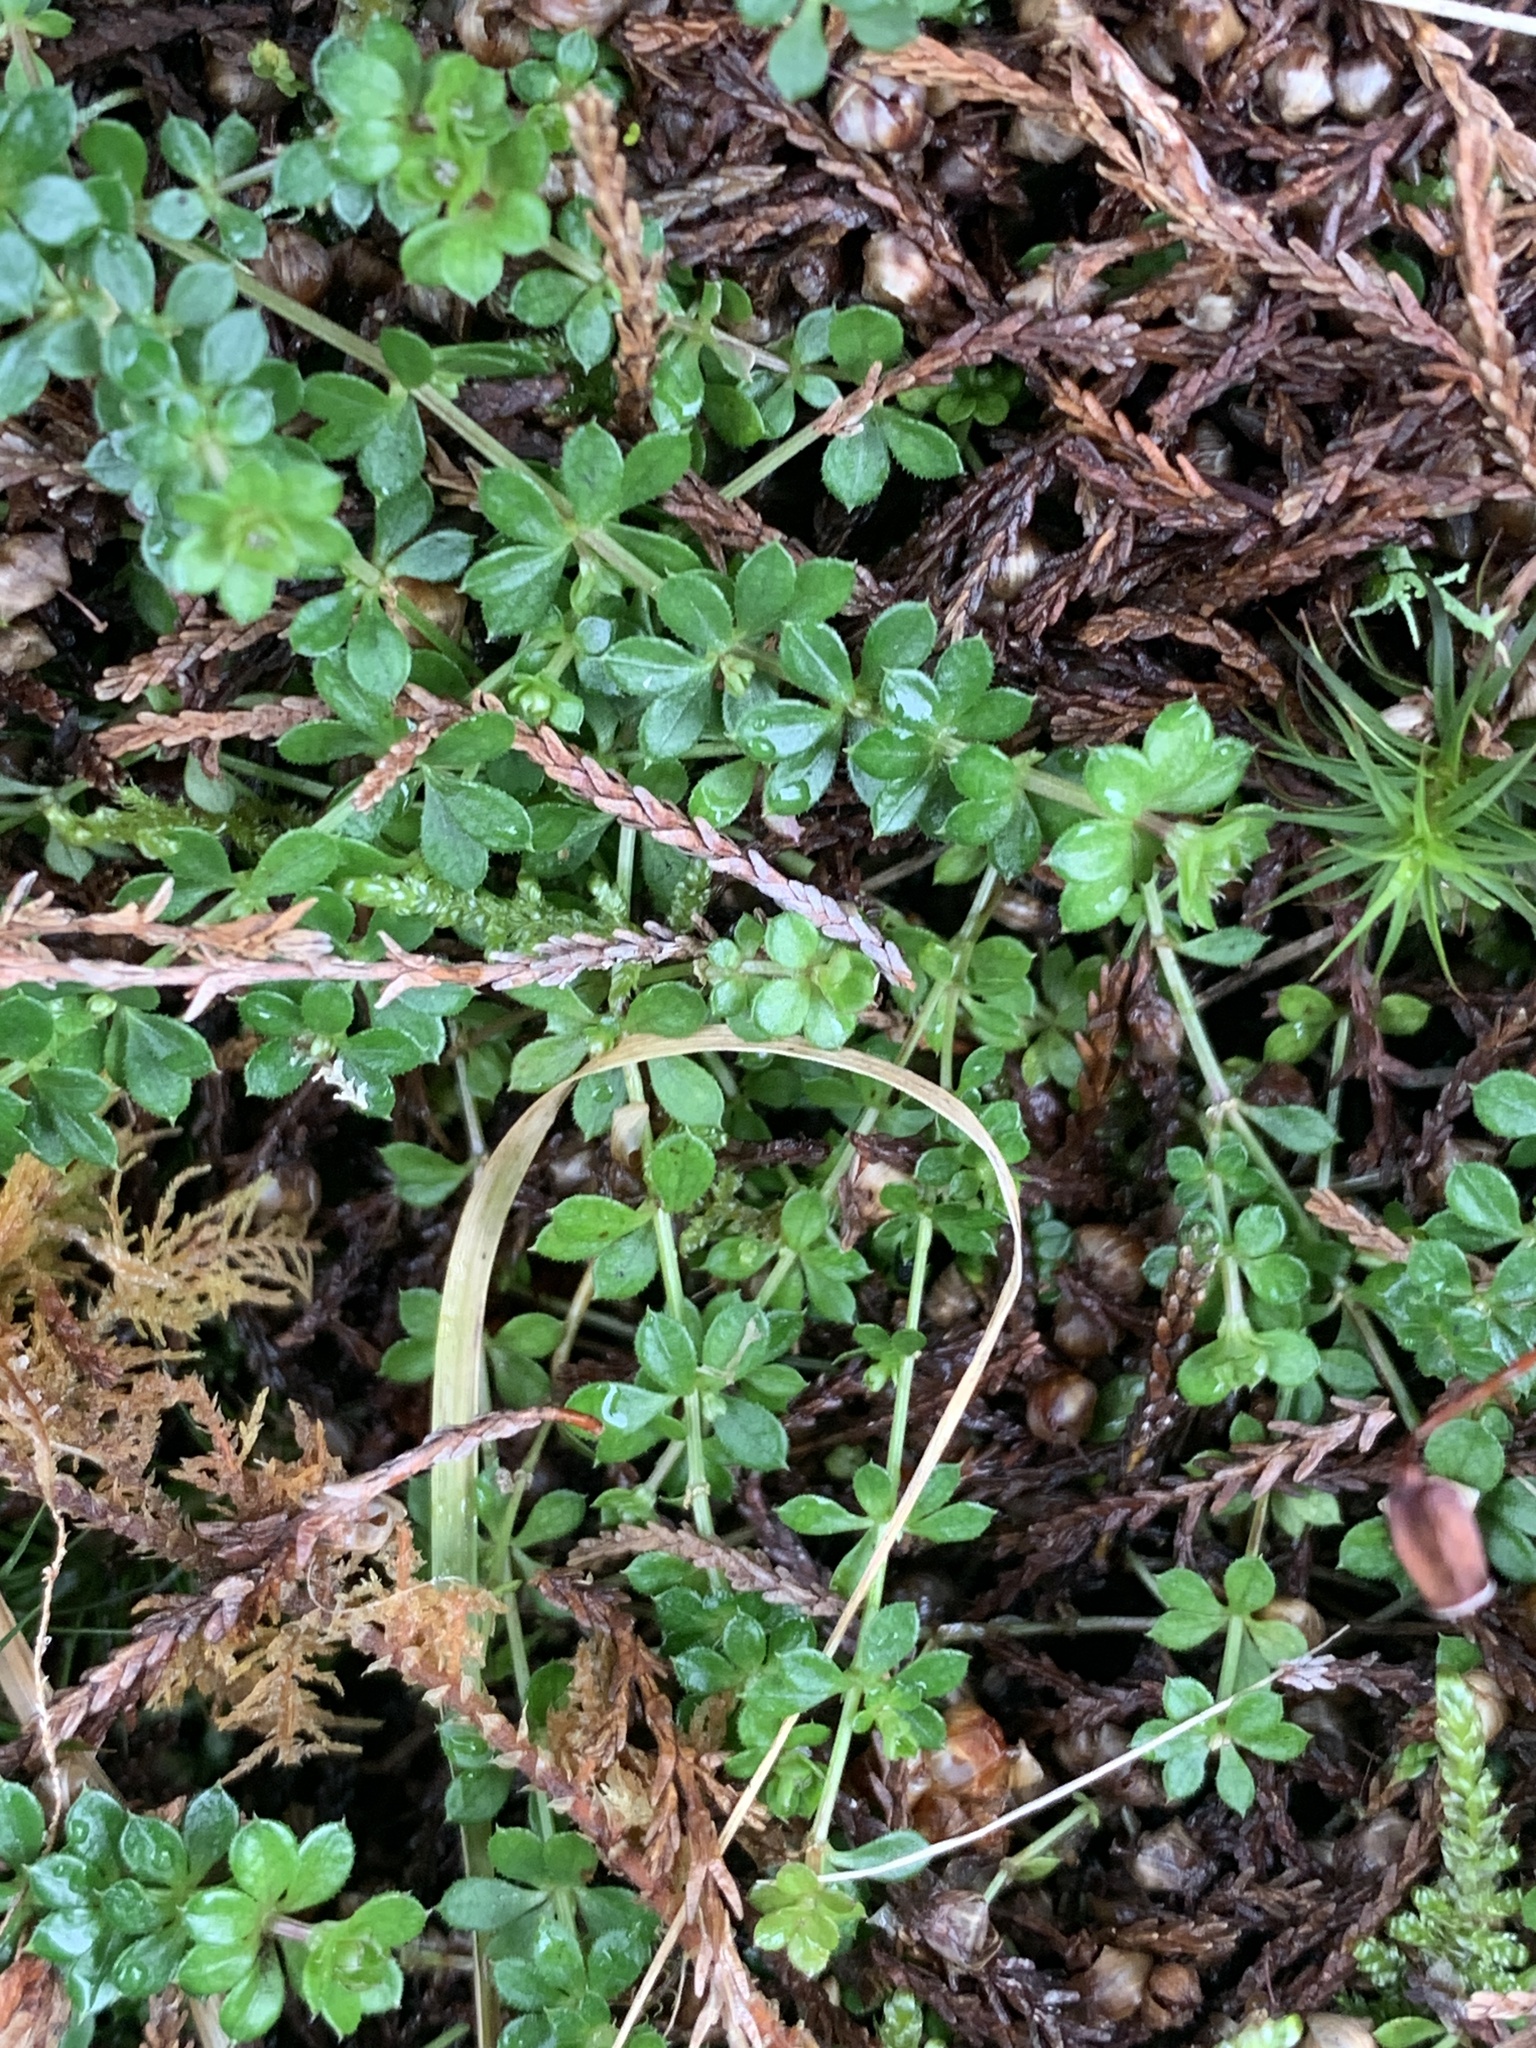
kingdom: Plantae
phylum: Tracheophyta
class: Magnoliopsida
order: Gentianales
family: Rubiaceae
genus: Galium
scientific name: Galium saxatile
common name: Heath bedstraw
